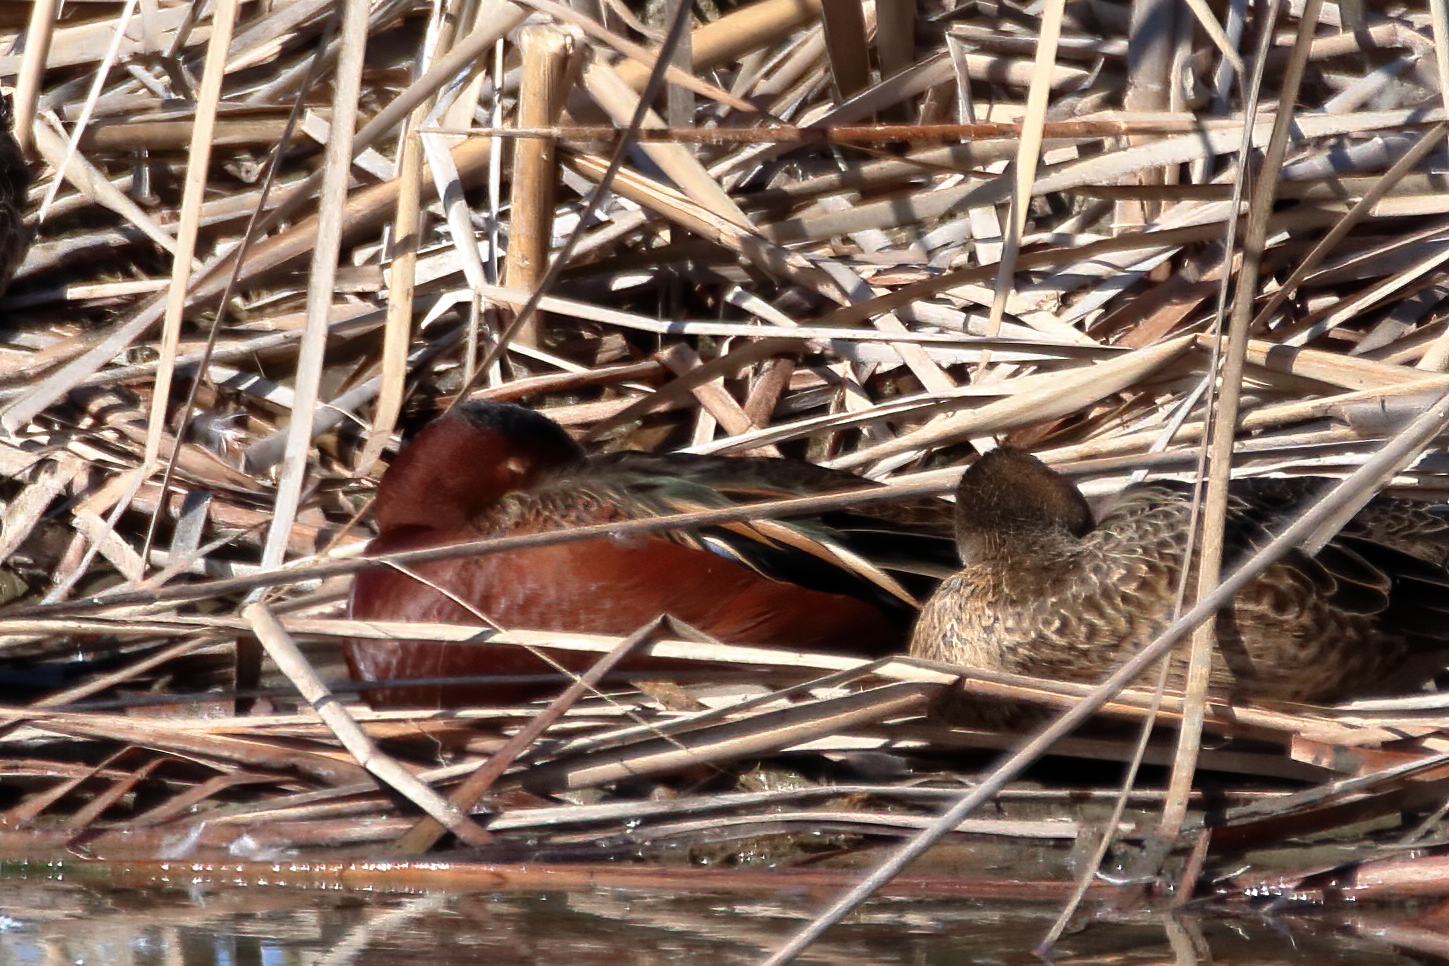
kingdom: Animalia
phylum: Chordata
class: Aves
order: Anseriformes
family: Anatidae
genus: Spatula
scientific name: Spatula cyanoptera
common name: Cinnamon teal
